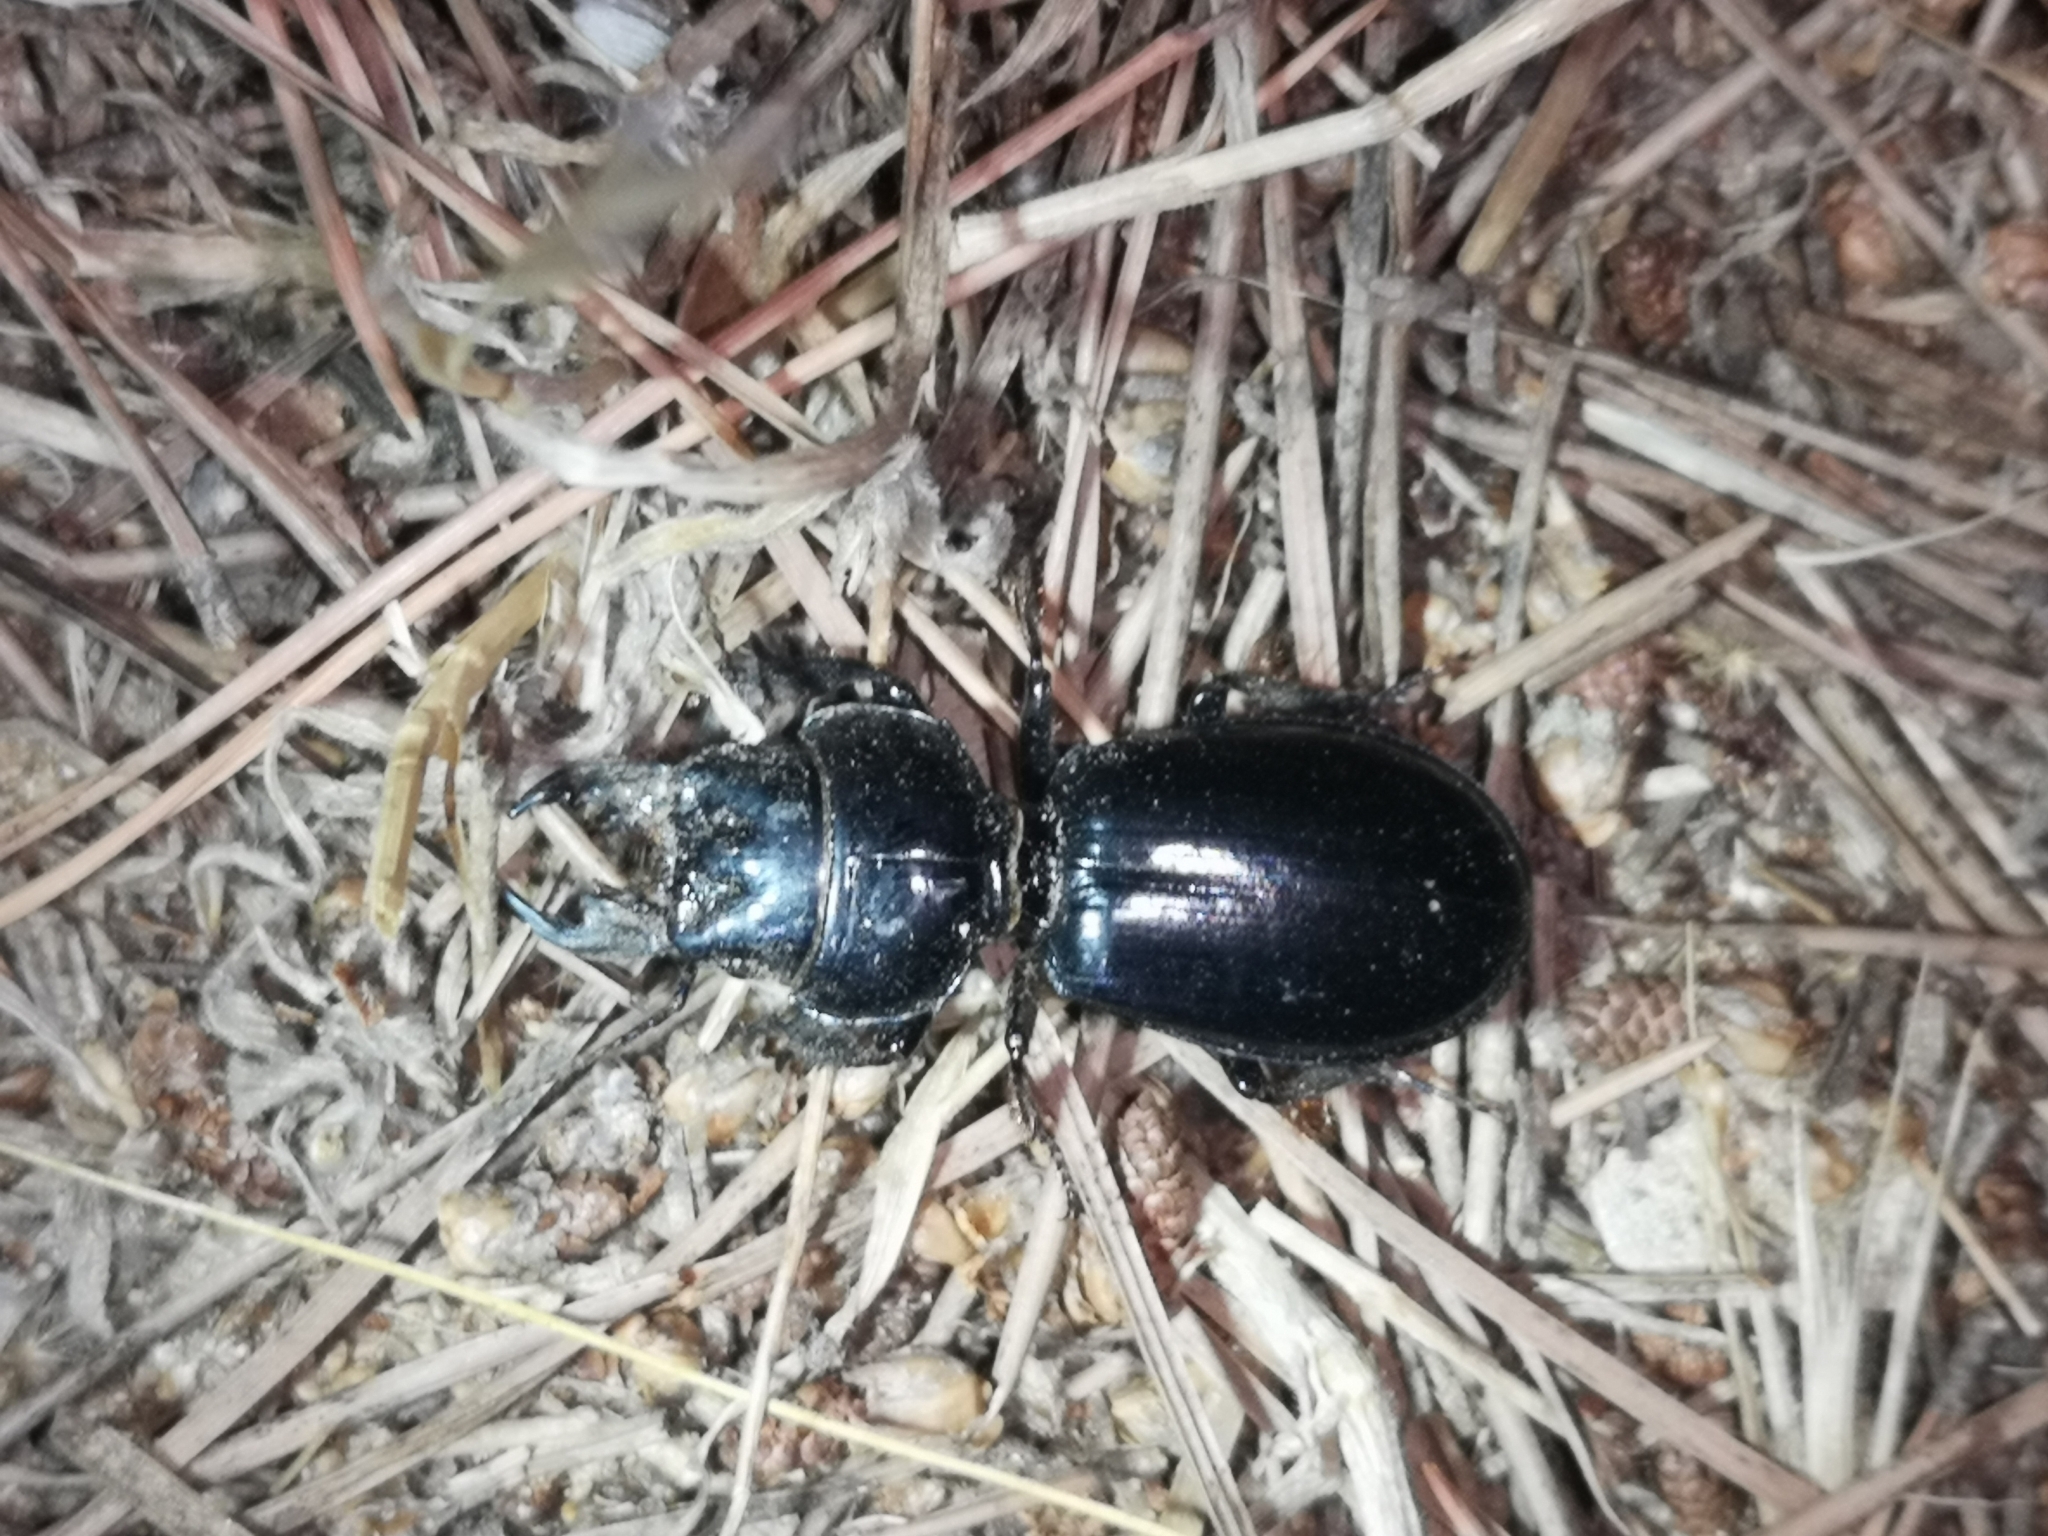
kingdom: Animalia
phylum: Arthropoda
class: Insecta
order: Coleoptera
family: Carabidae
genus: Scarites
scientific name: Scarites buparius
